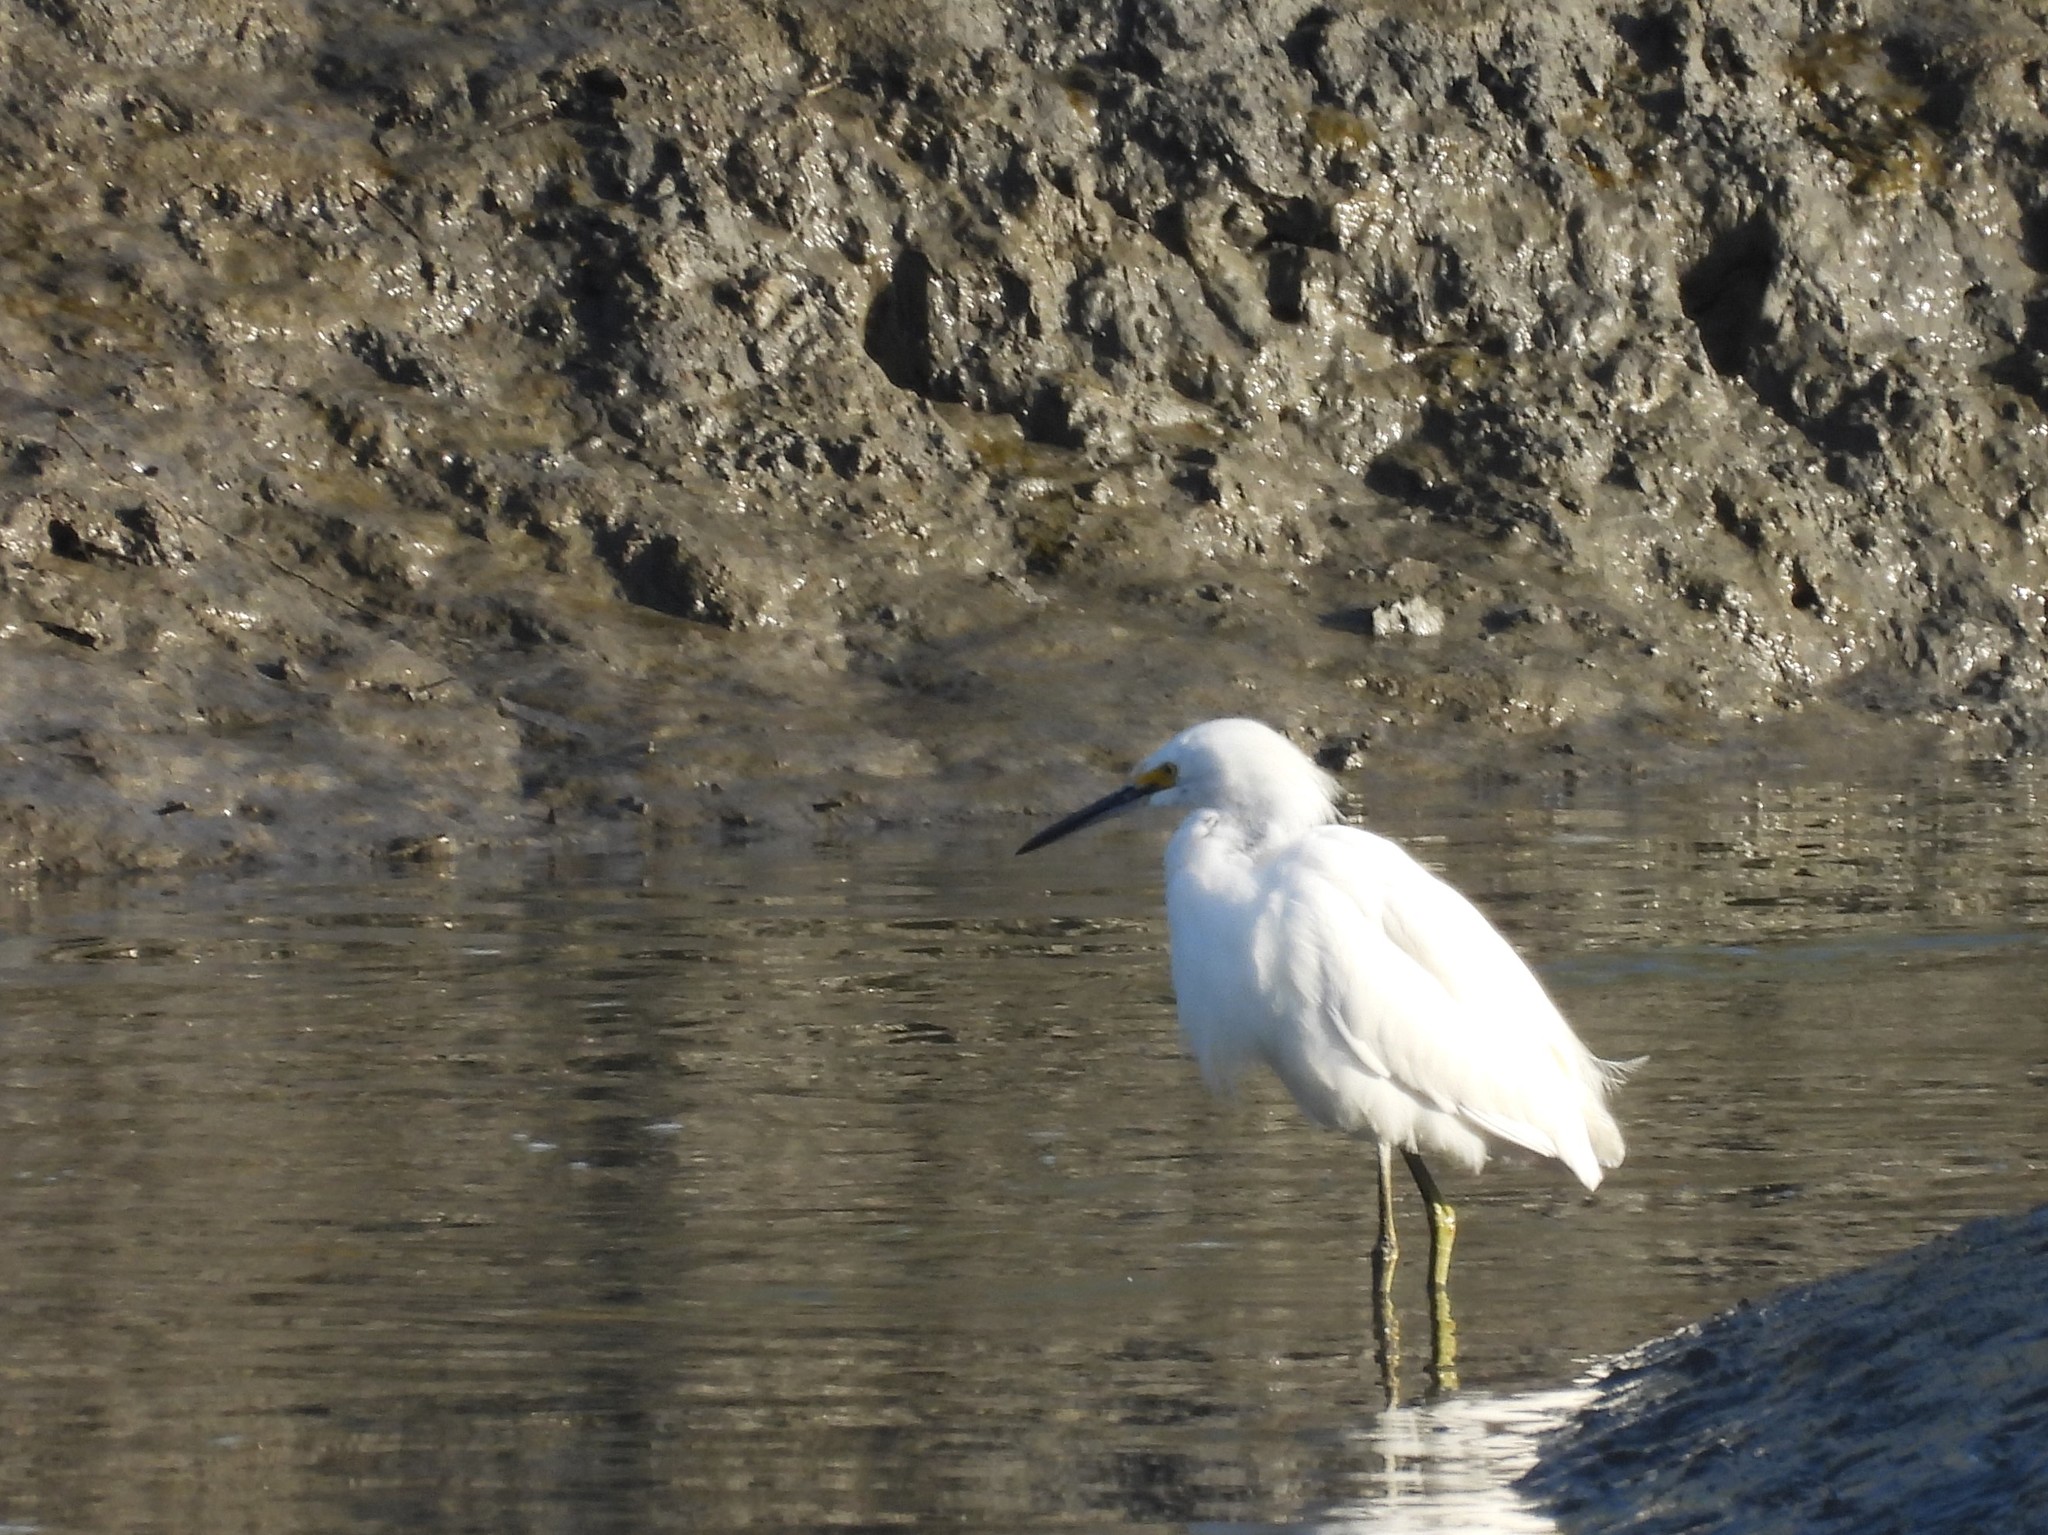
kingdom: Animalia
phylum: Chordata
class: Aves
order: Pelecaniformes
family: Ardeidae
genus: Egretta
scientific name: Egretta thula
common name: Snowy egret
